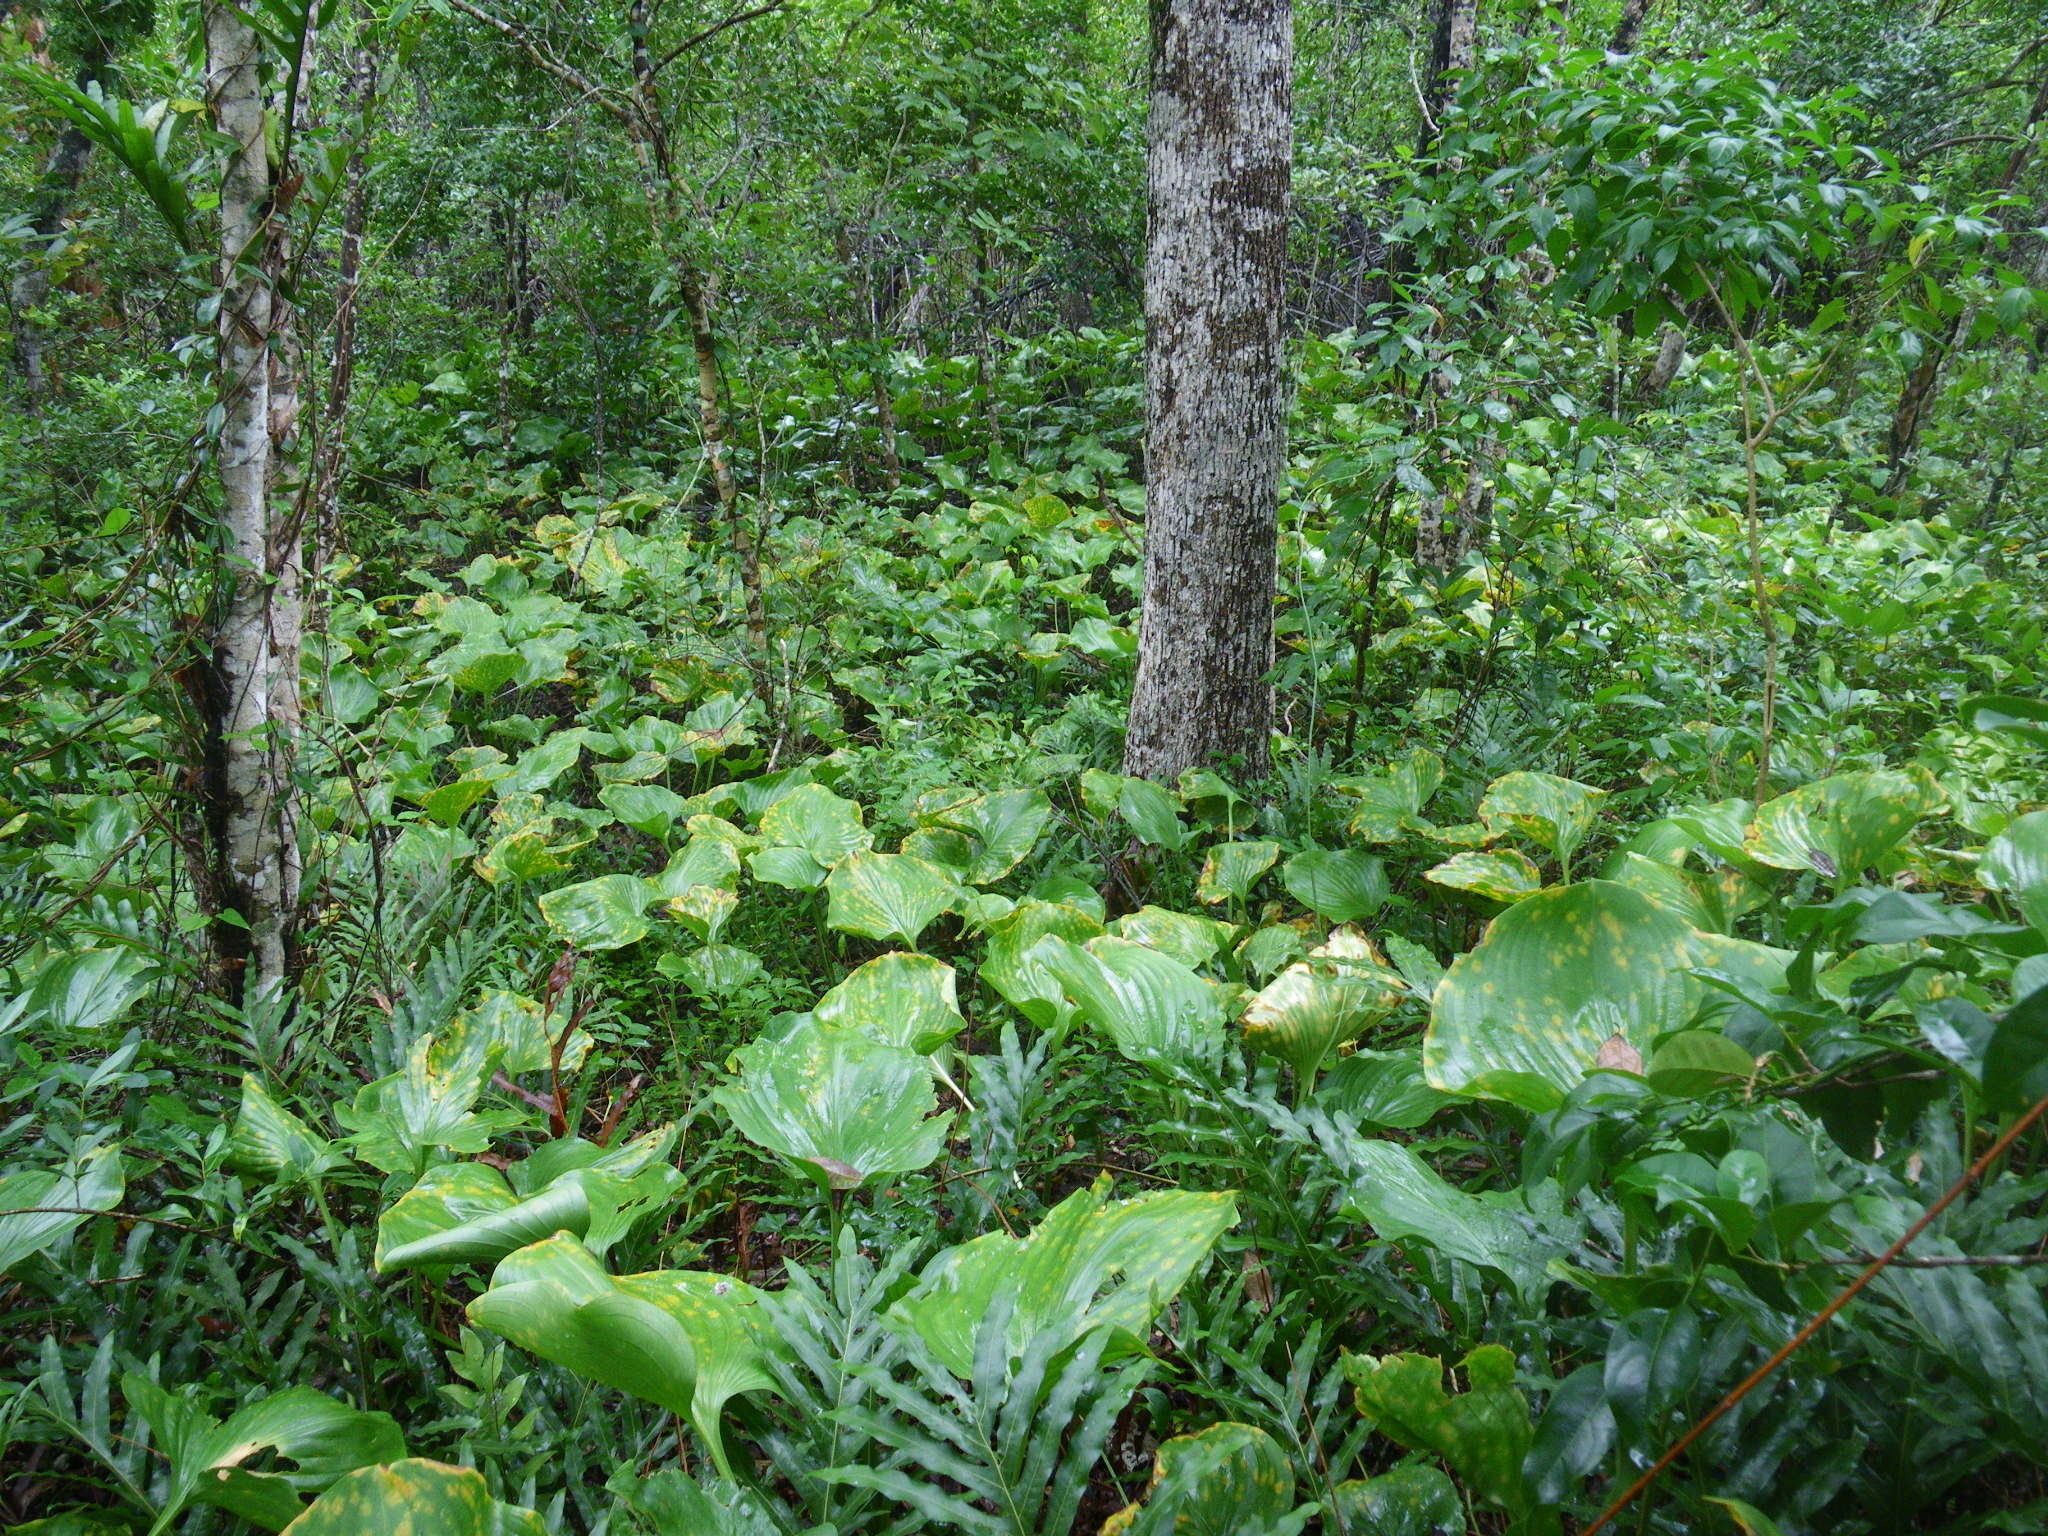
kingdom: Plantae
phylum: Tracheophyta
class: Liliopsida
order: Asparagales
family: Amaryllidaceae
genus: Proiphys
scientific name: Proiphys amboinensis
